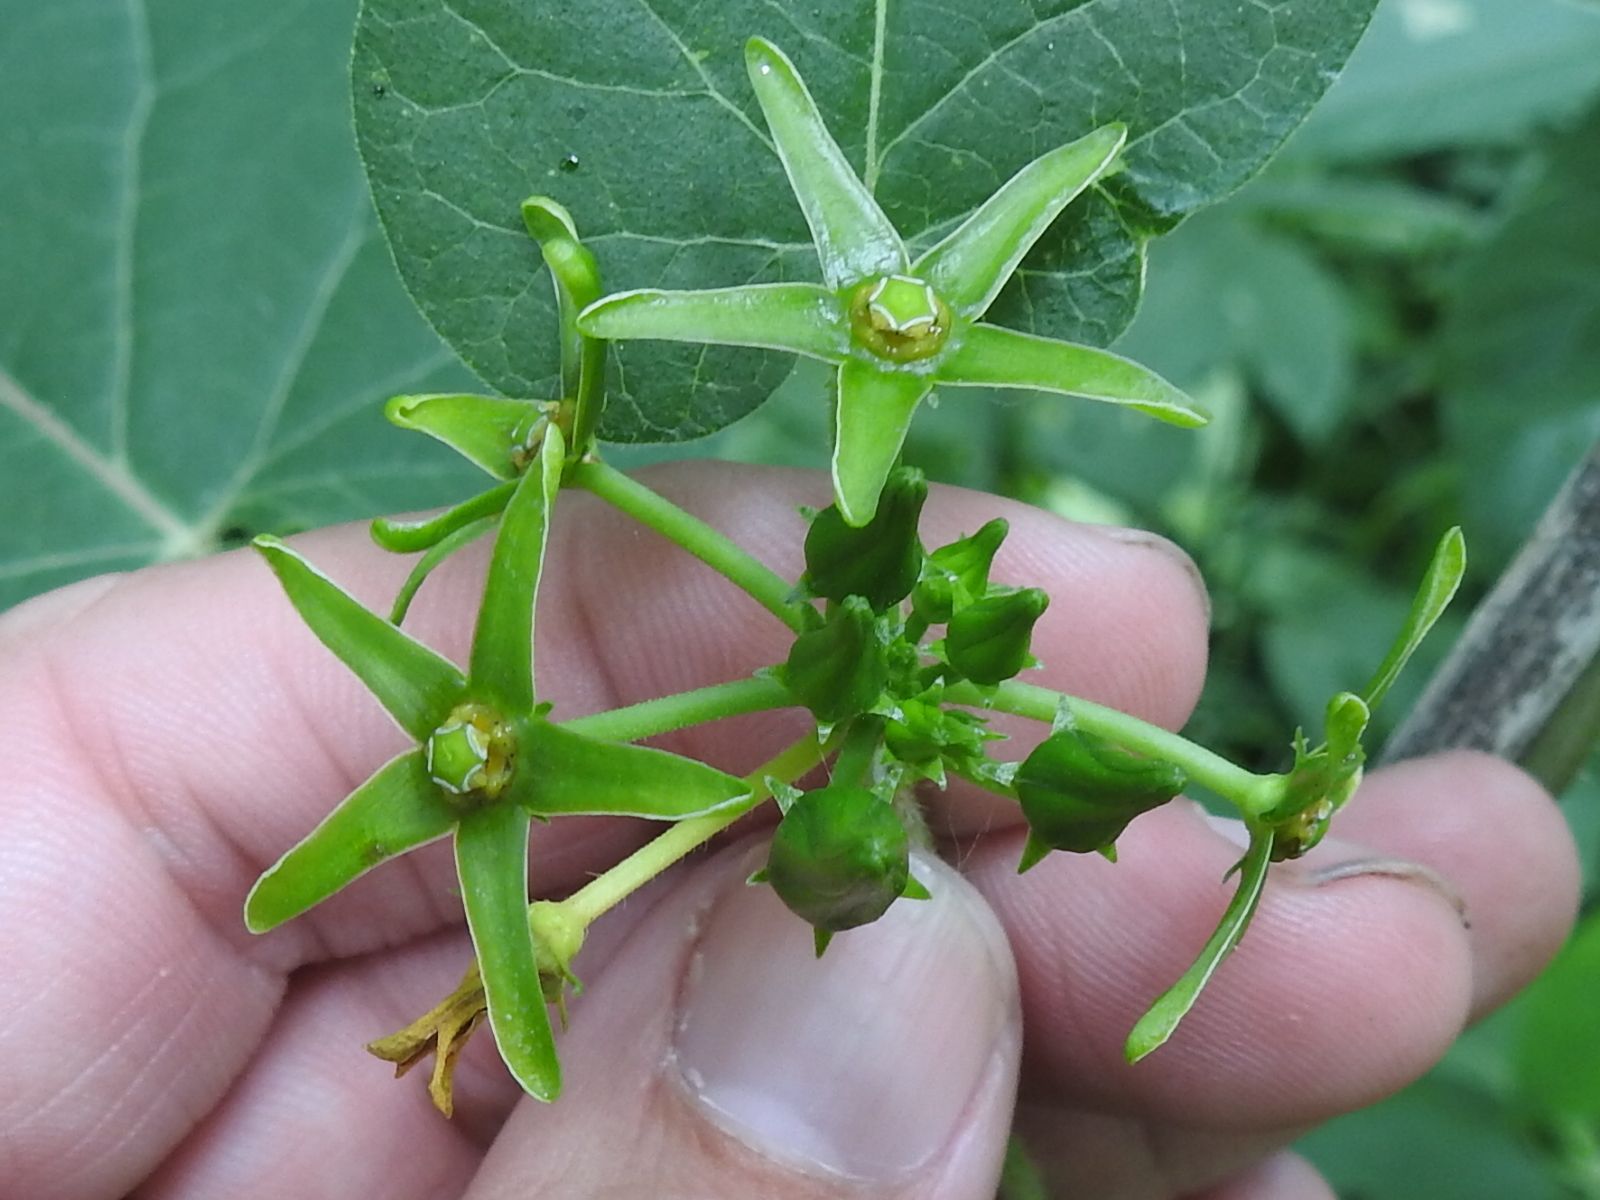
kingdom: Plantae
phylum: Tracheophyta
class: Magnoliopsida
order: Gentianales
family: Apocynaceae
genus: Gonolobus
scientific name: Gonolobus suberosus
